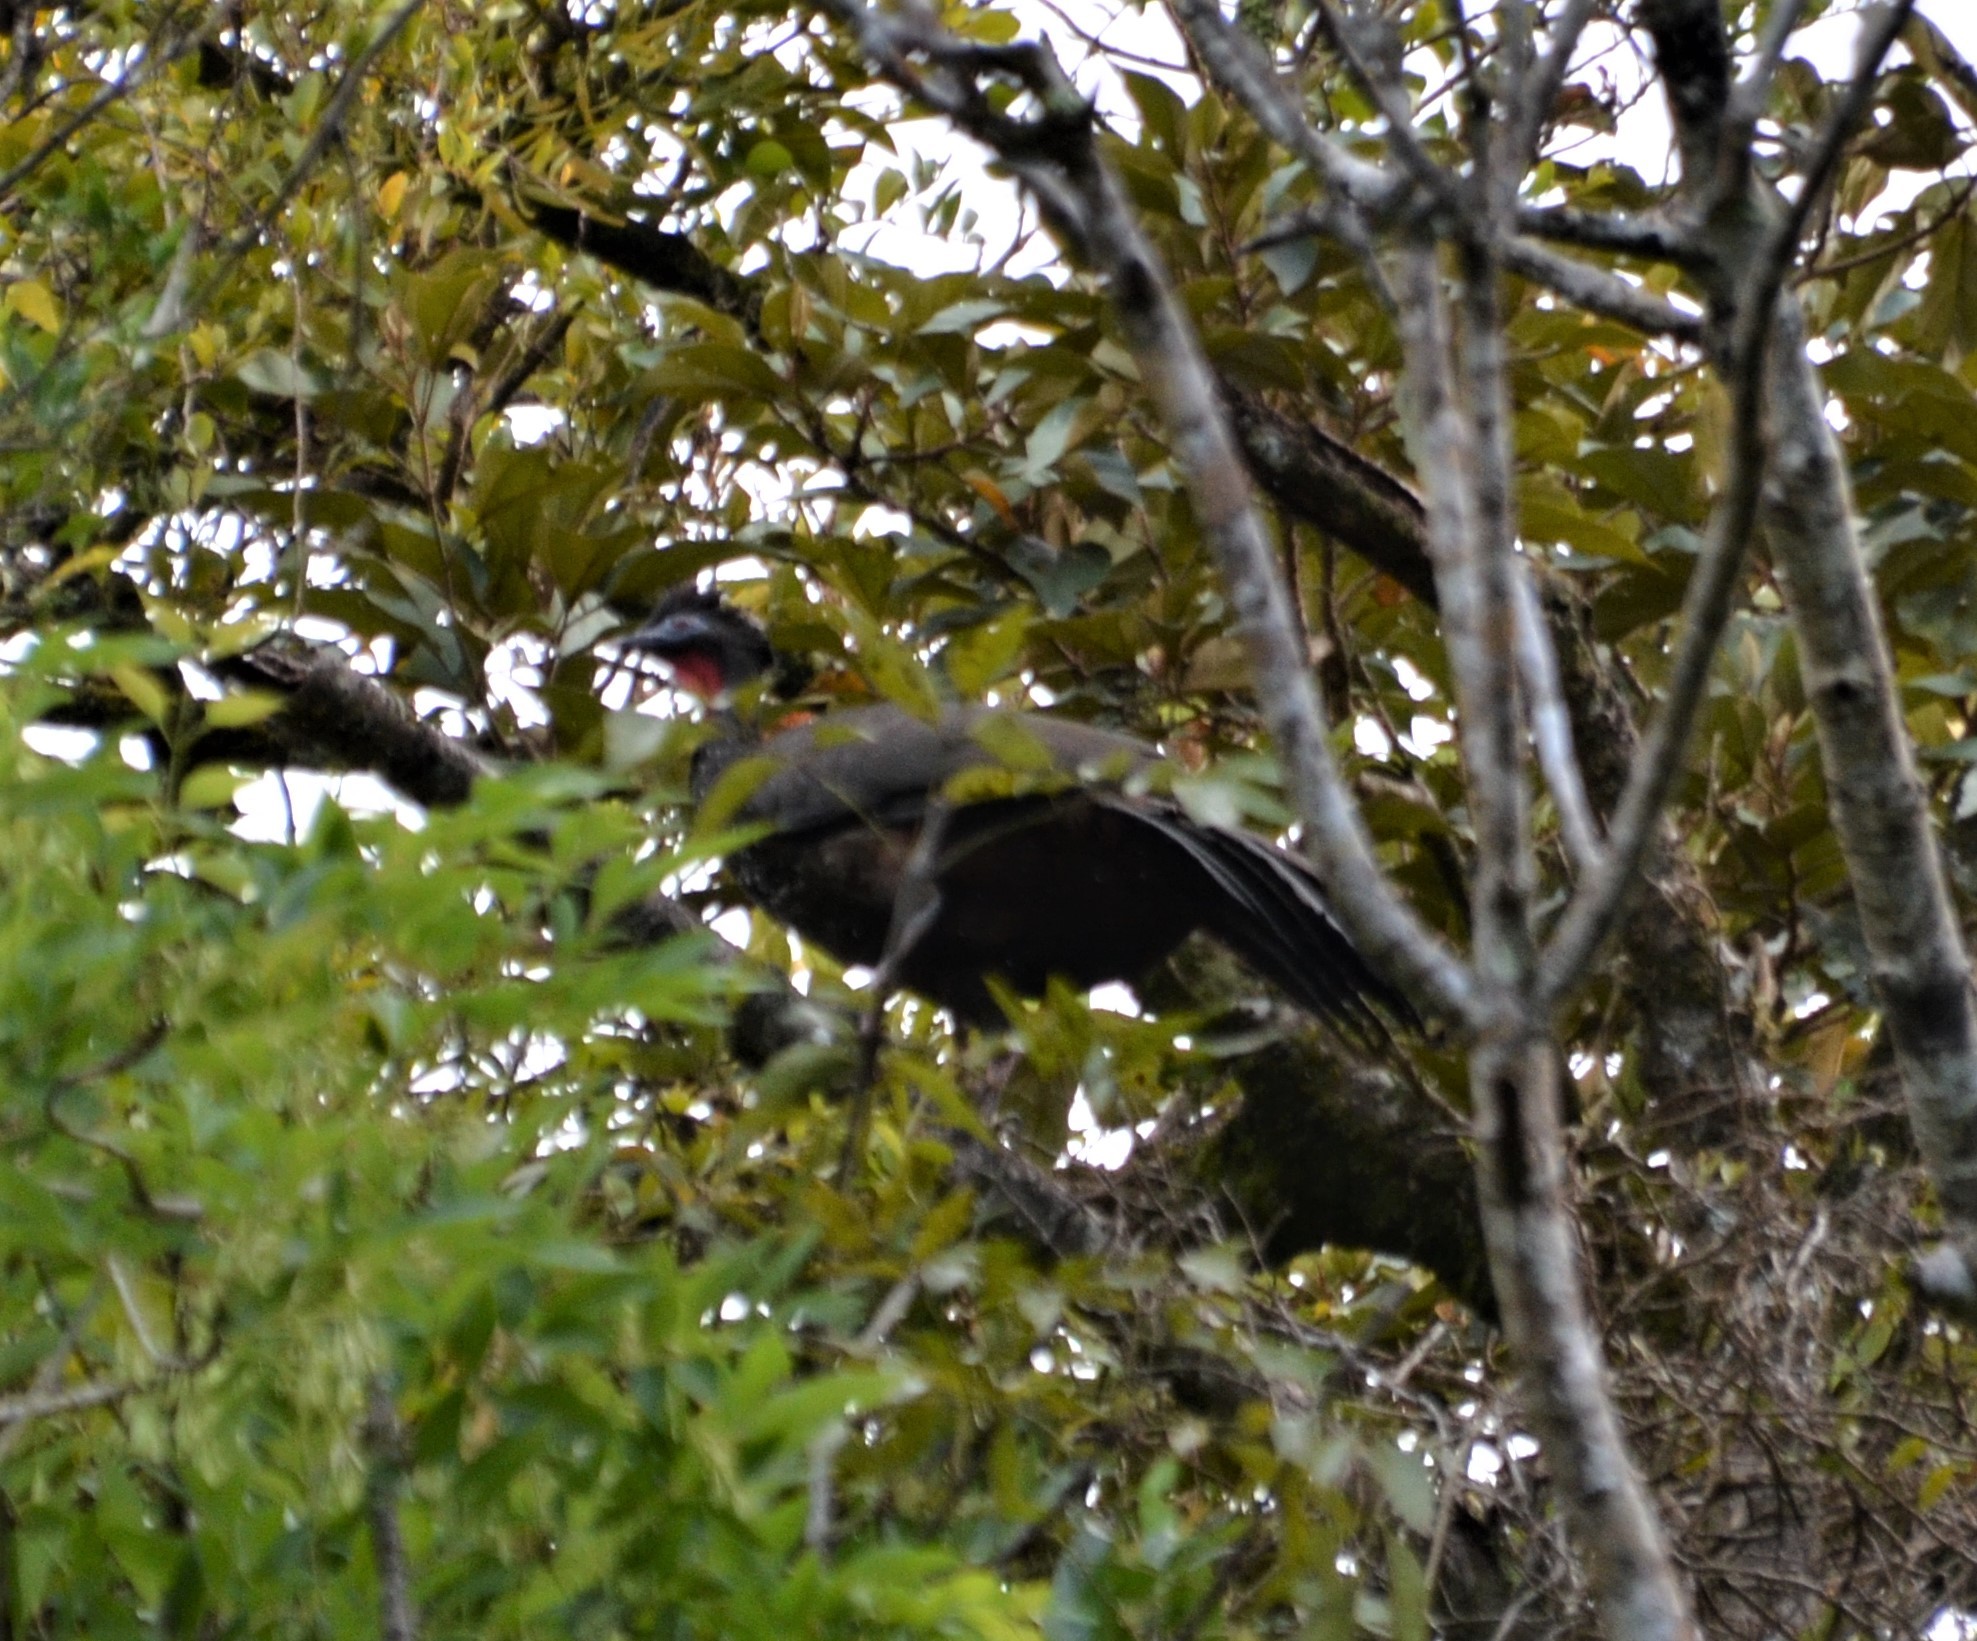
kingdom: Animalia
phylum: Chordata
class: Aves
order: Galliformes
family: Cracidae
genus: Penelope
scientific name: Penelope purpurascens
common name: Crested guan
